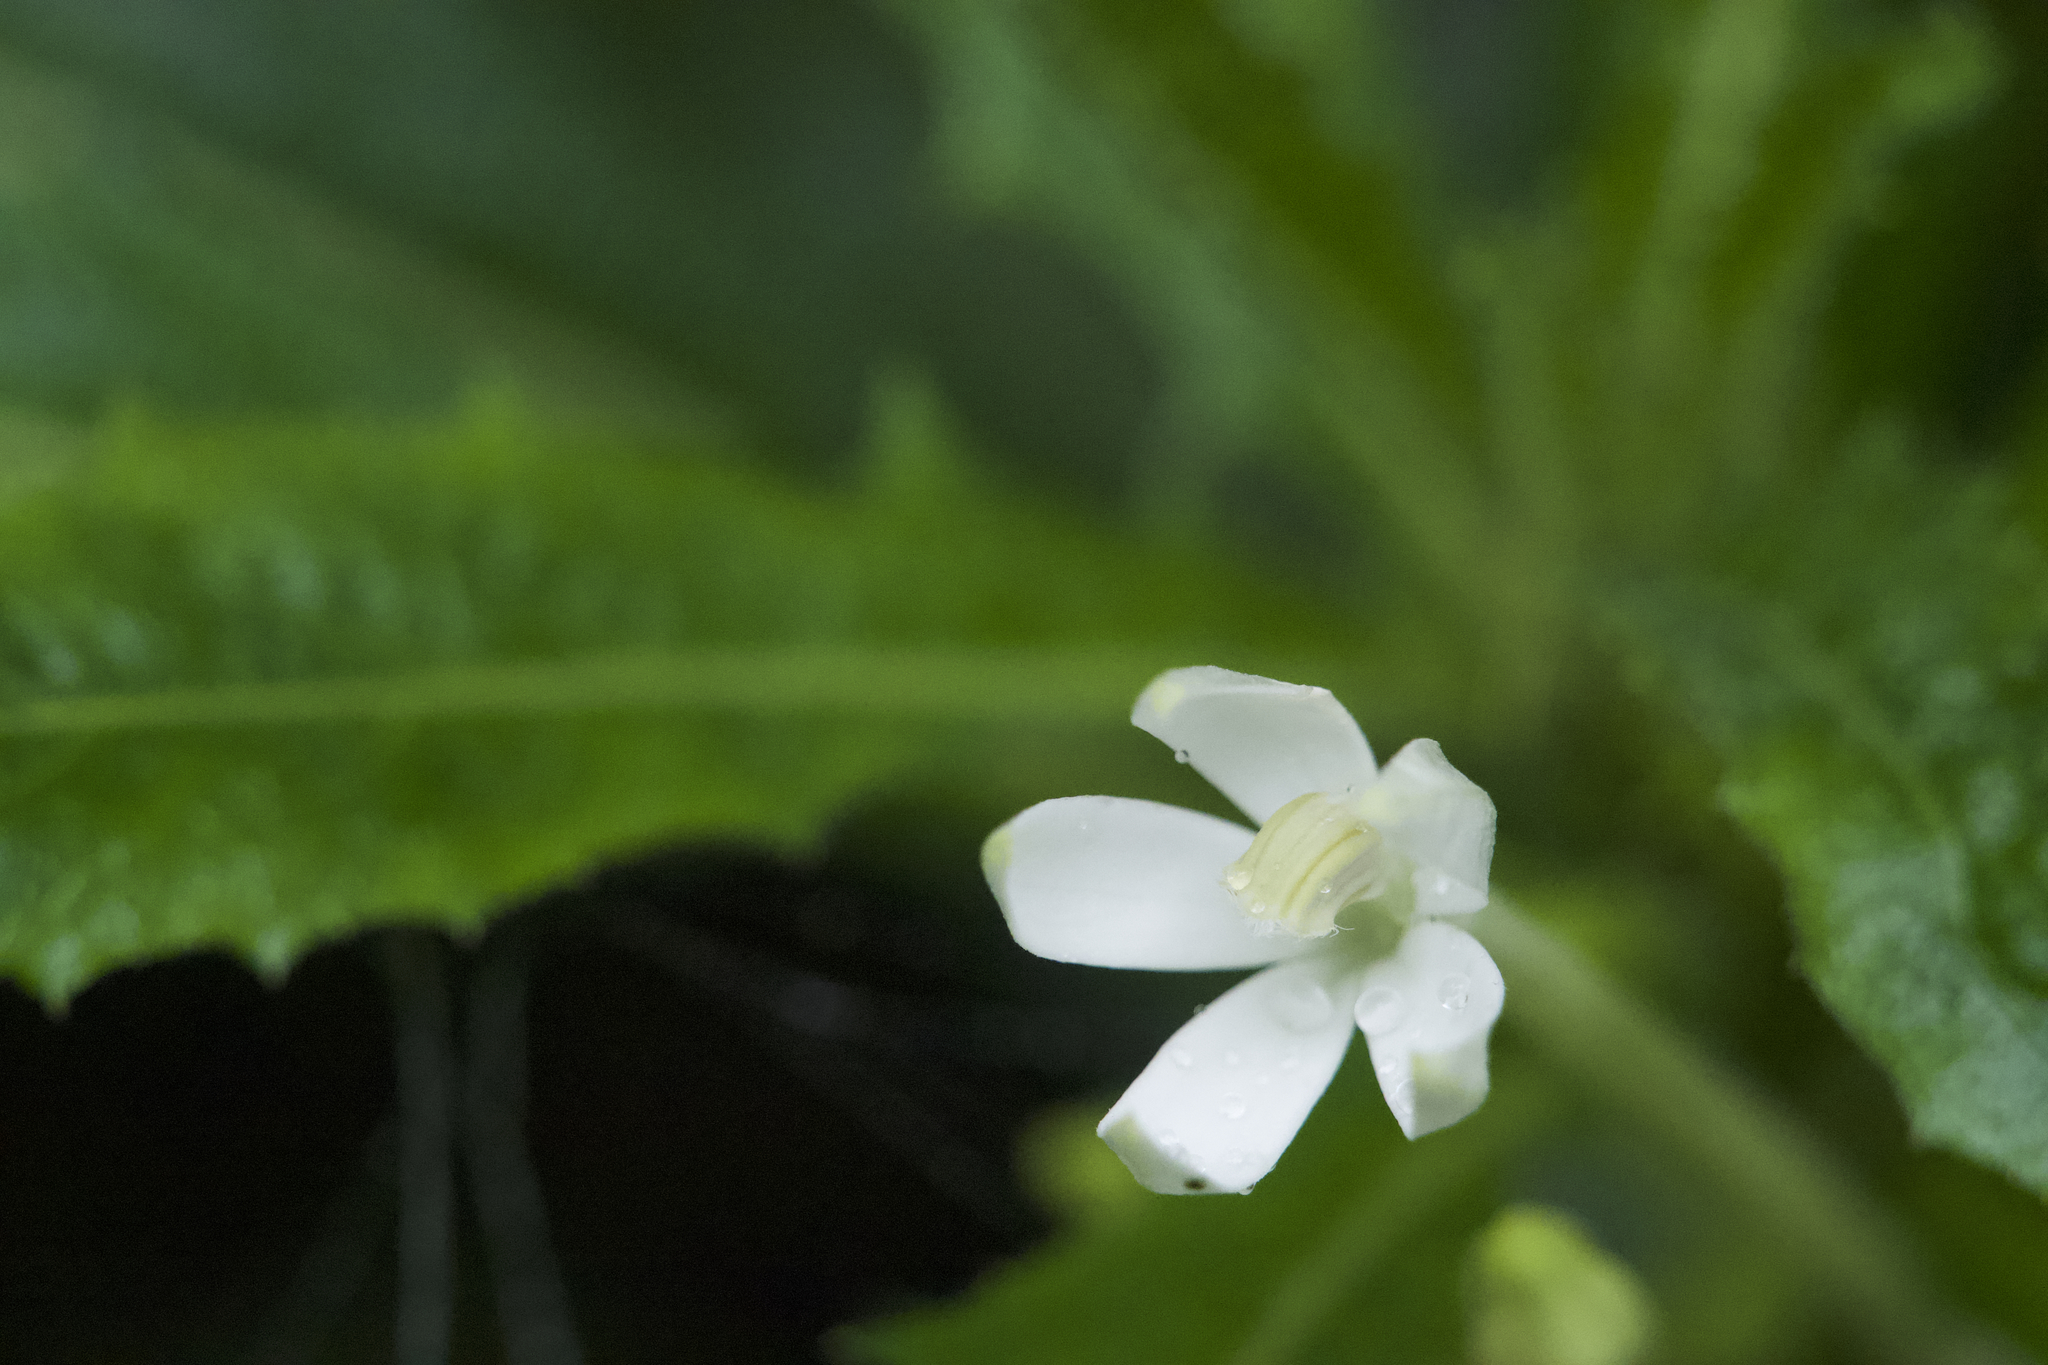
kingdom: Plantae
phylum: Tracheophyta
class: Magnoliopsida
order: Asterales
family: Campanulaceae
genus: Hippobroma
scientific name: Hippobroma longiflora
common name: Madamfate
